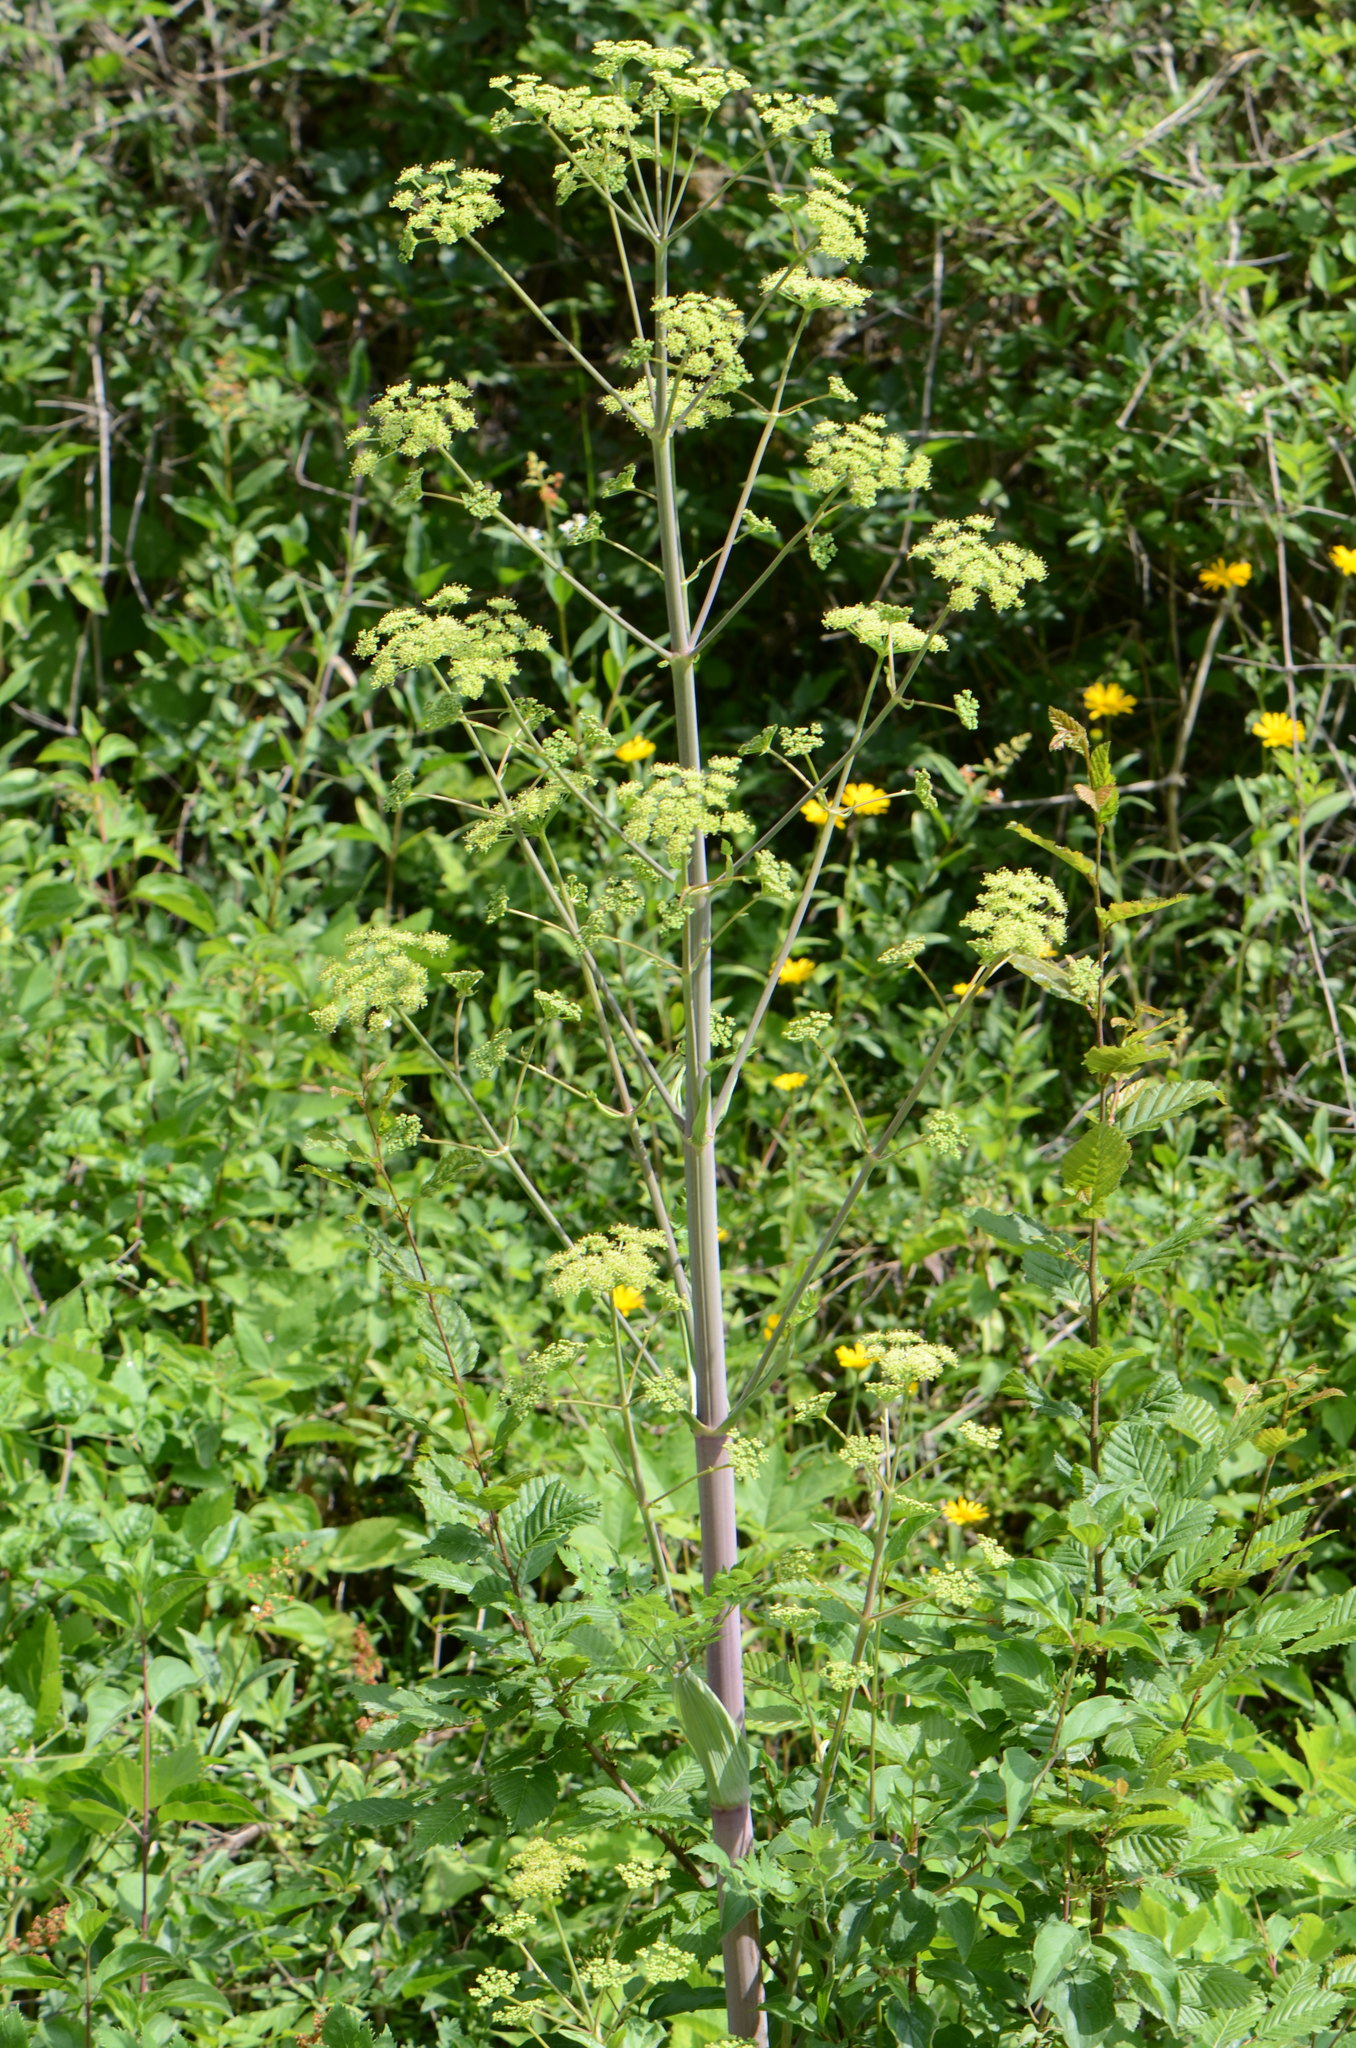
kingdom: Plantae
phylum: Tracheophyta
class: Magnoliopsida
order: Apiales
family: Apiaceae
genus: Peucedanum
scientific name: Peucedanum verticillare
